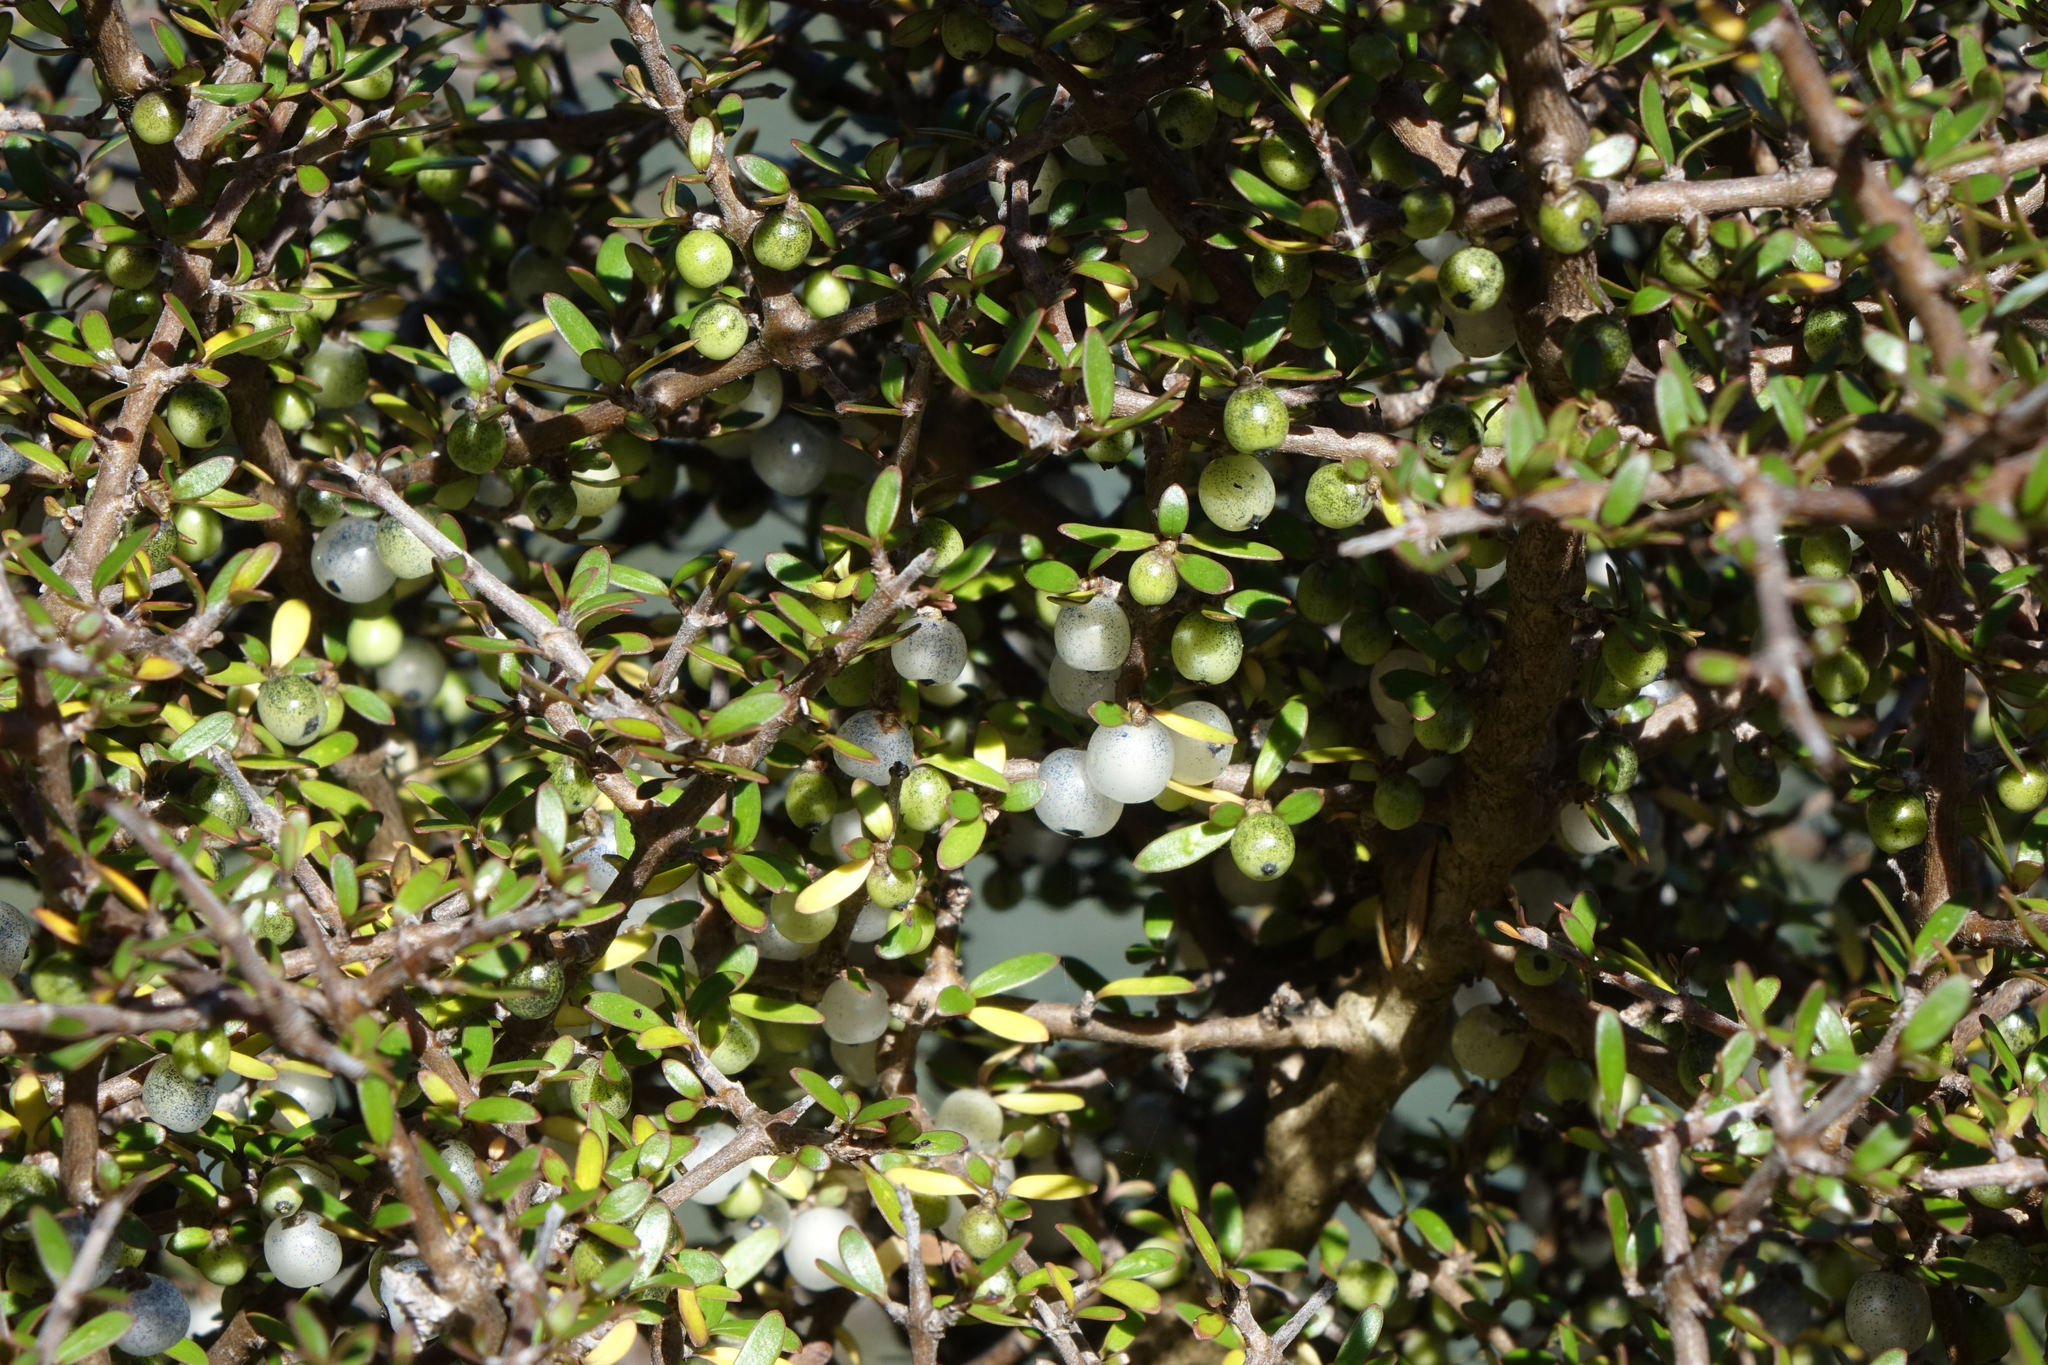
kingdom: Plantae
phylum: Tracheophyta
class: Magnoliopsida
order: Gentianales
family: Rubiaceae
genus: Coprosma
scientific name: Coprosma propinqua
